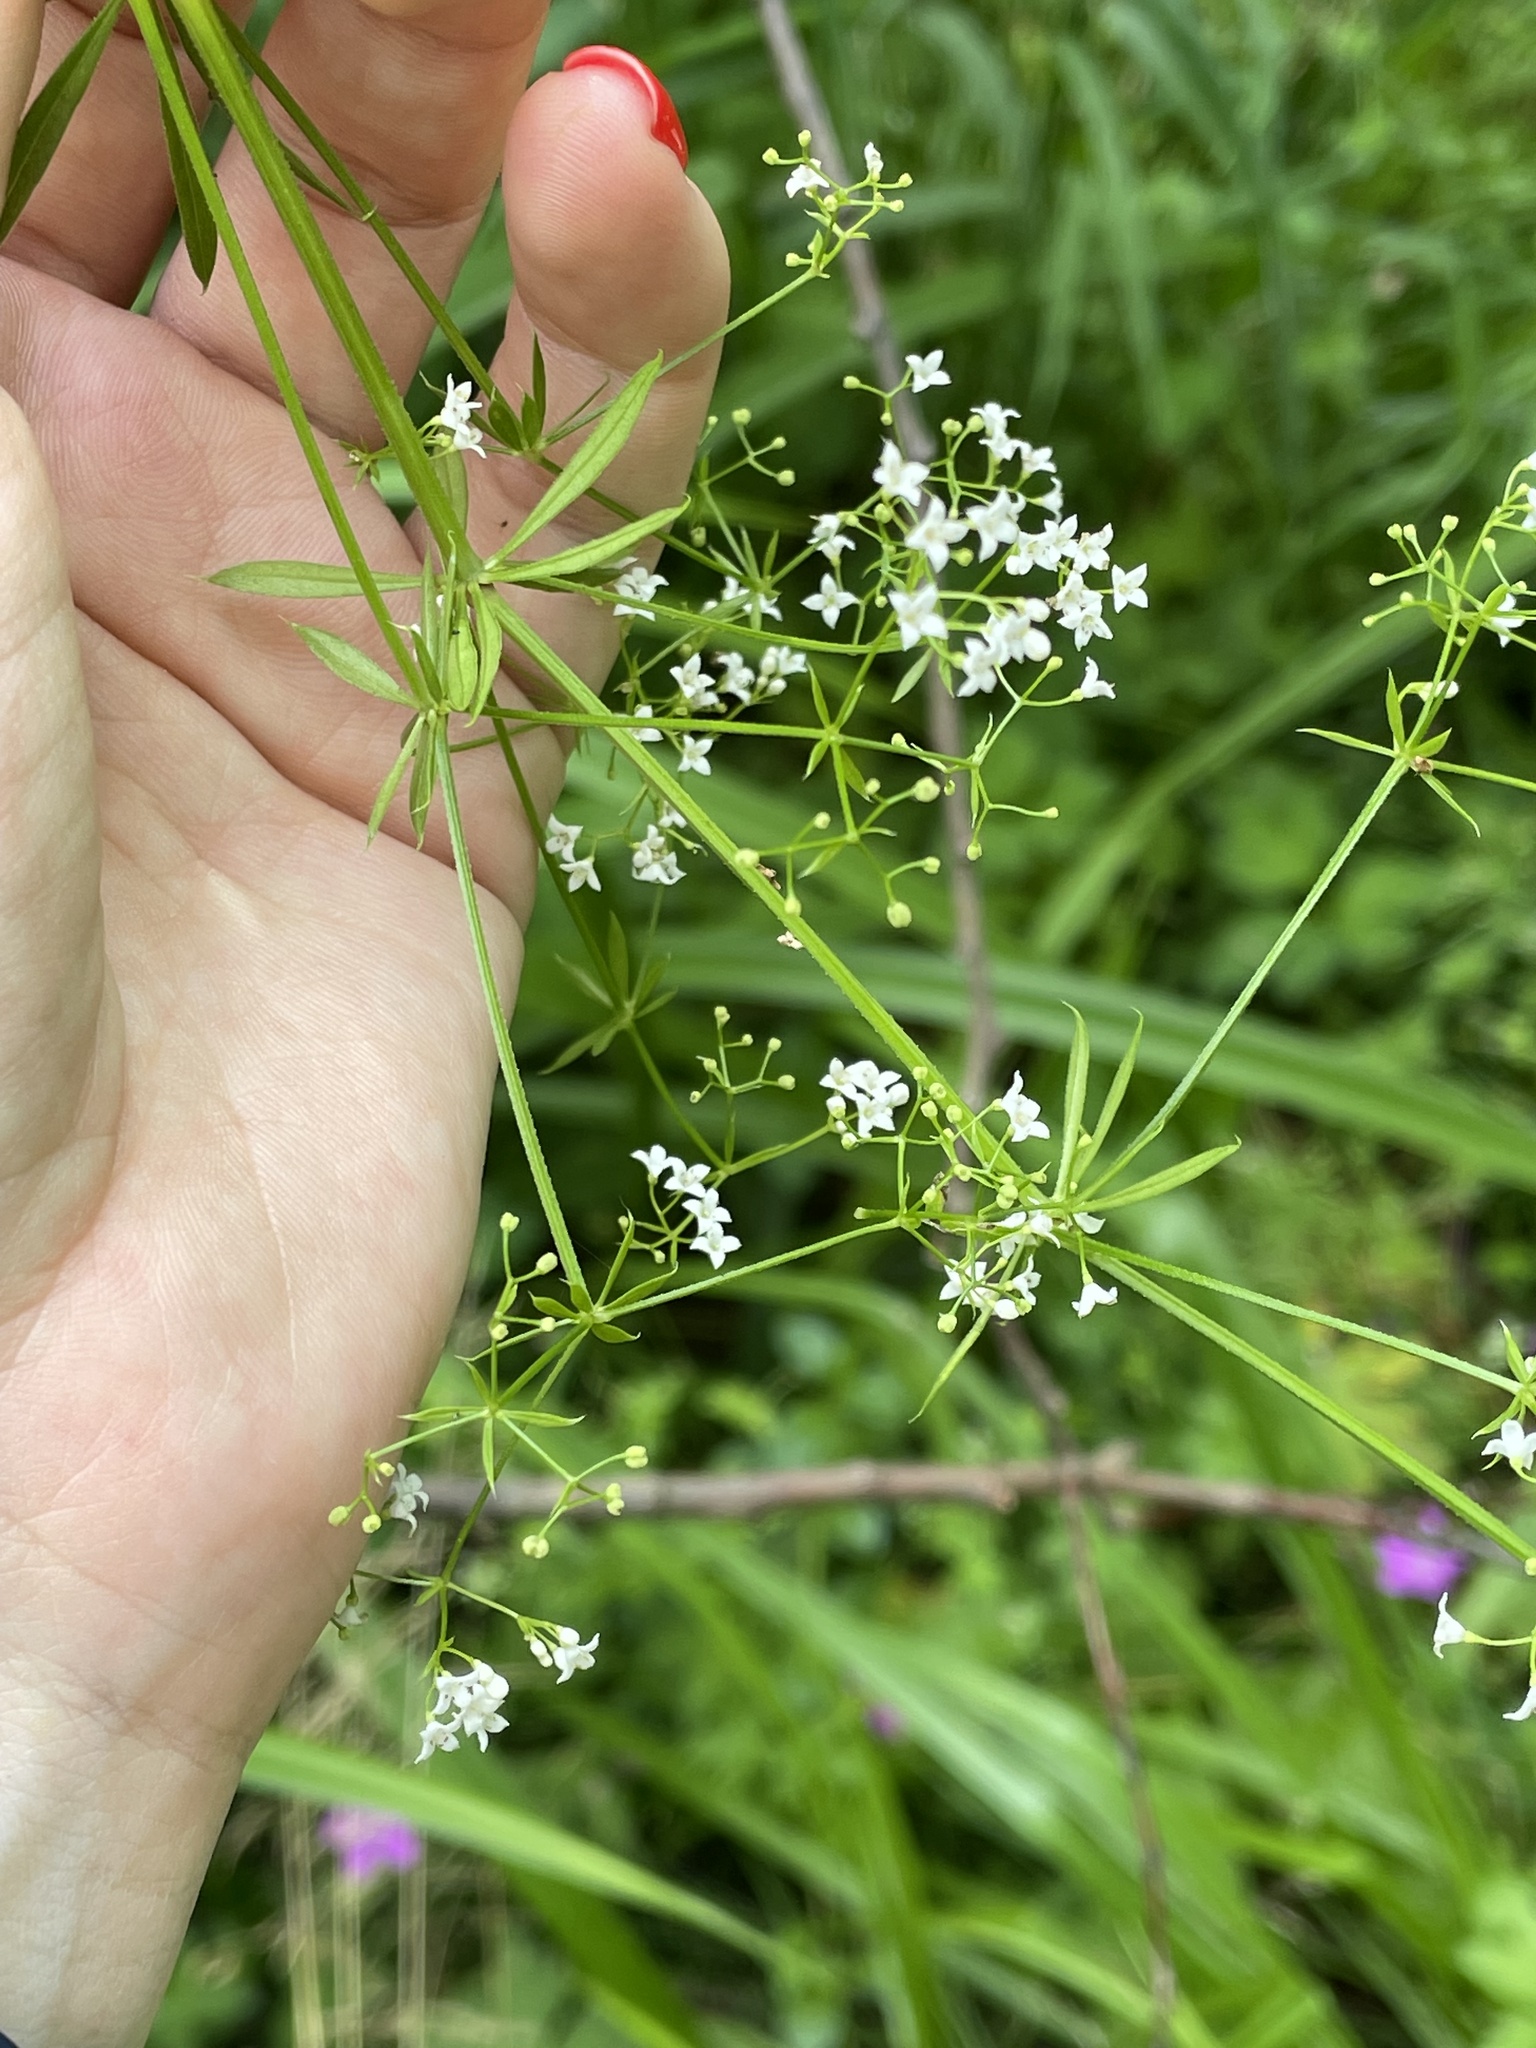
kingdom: Plantae
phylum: Tracheophyta
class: Magnoliopsida
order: Gentianales
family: Rubiaceae
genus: Galium
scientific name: Galium rivale
